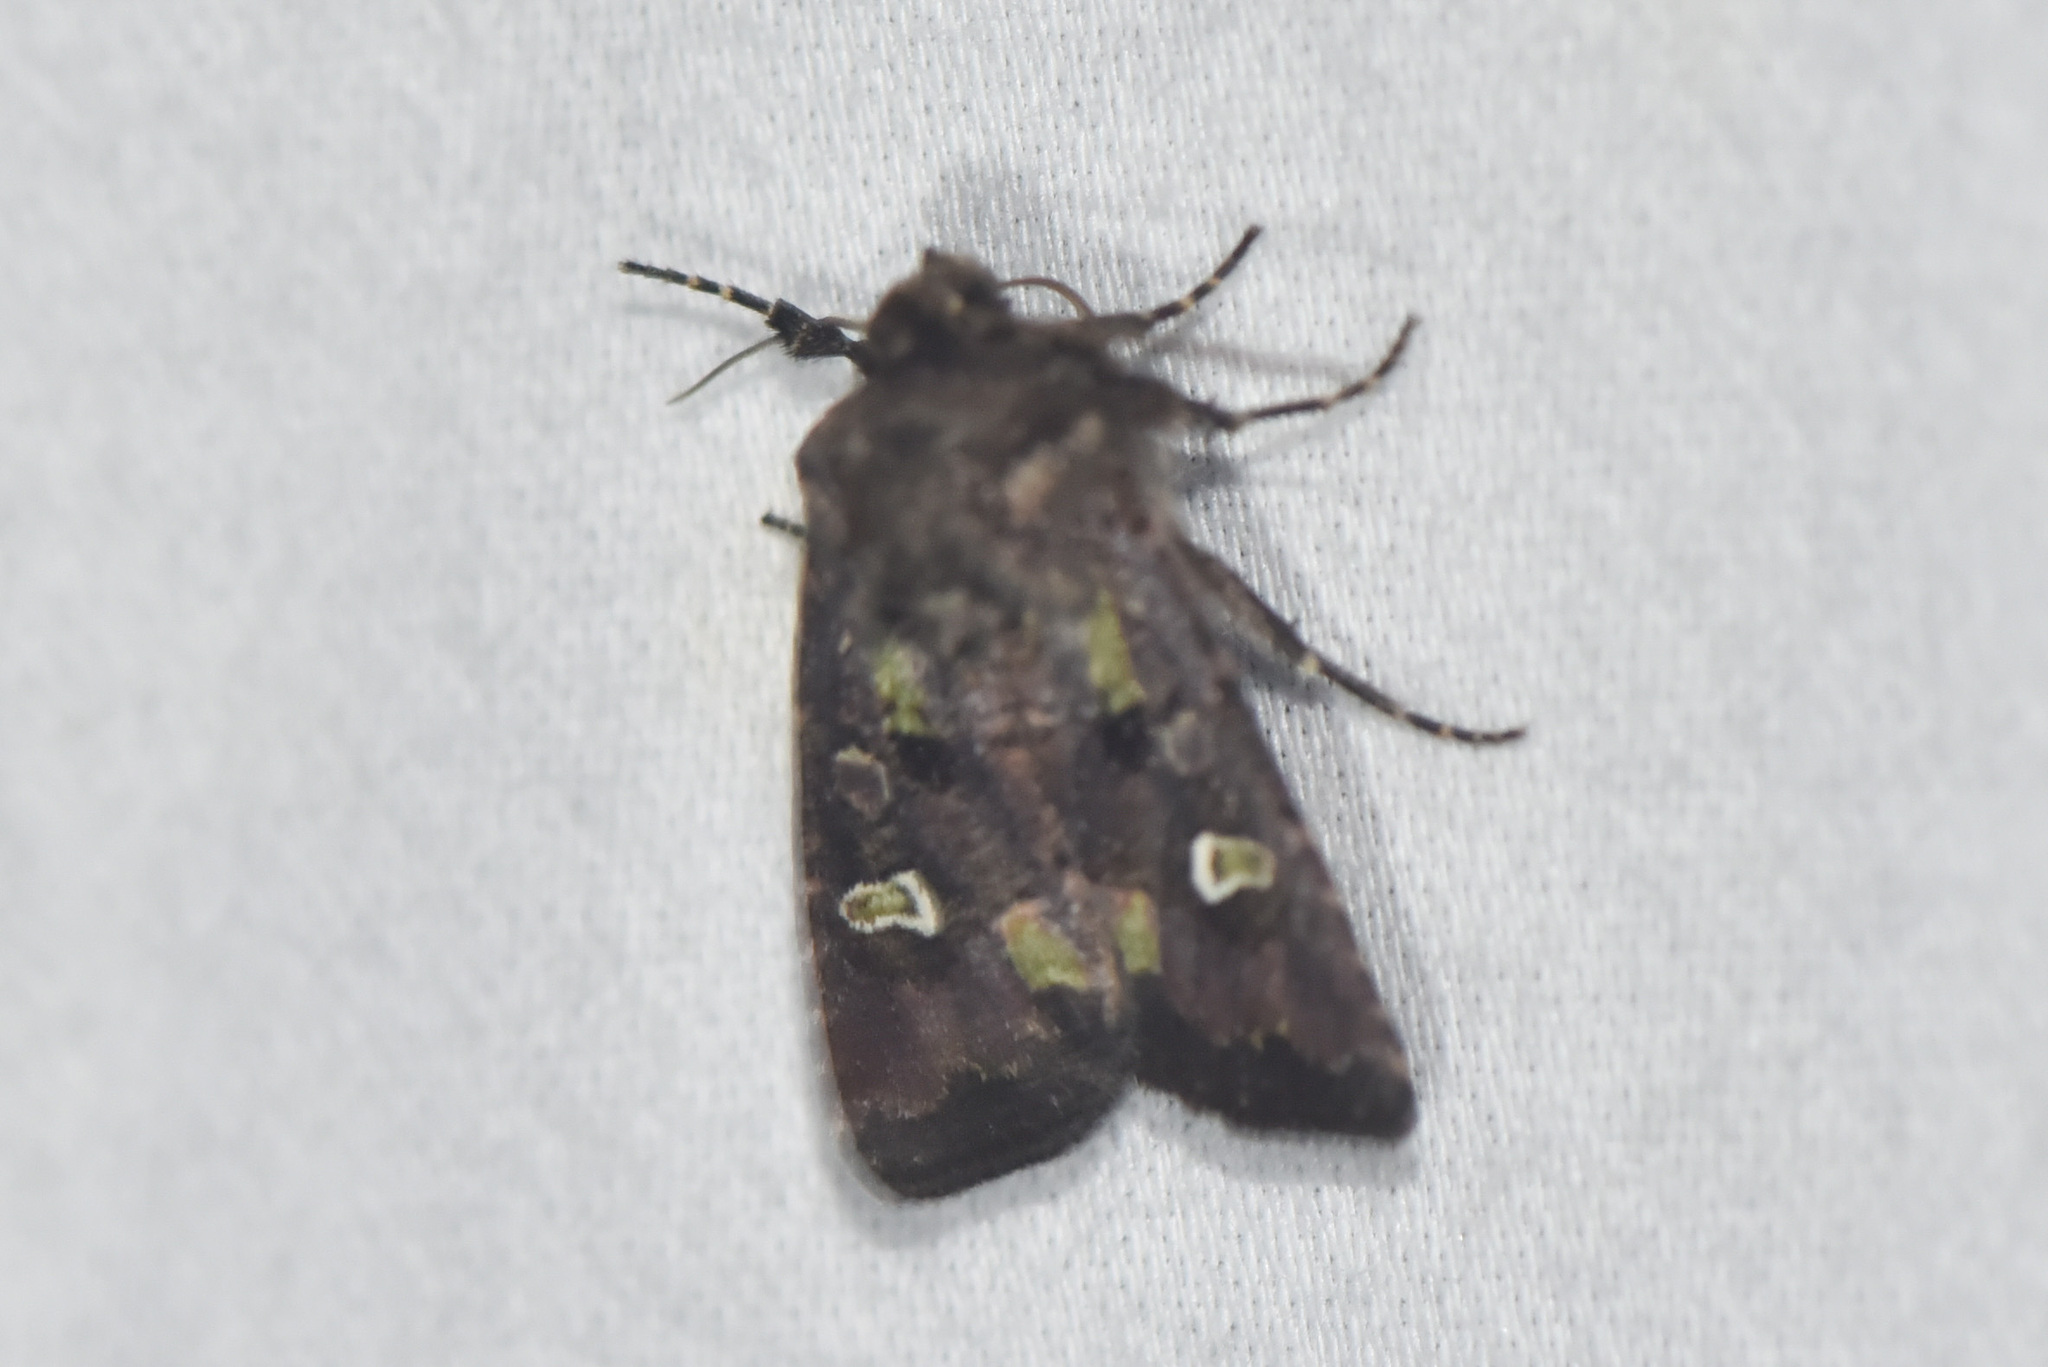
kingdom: Animalia
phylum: Arthropoda
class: Insecta
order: Lepidoptera
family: Noctuidae
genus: Lacinipolia
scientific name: Lacinipolia renigera
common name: Kidney-spotted minor
